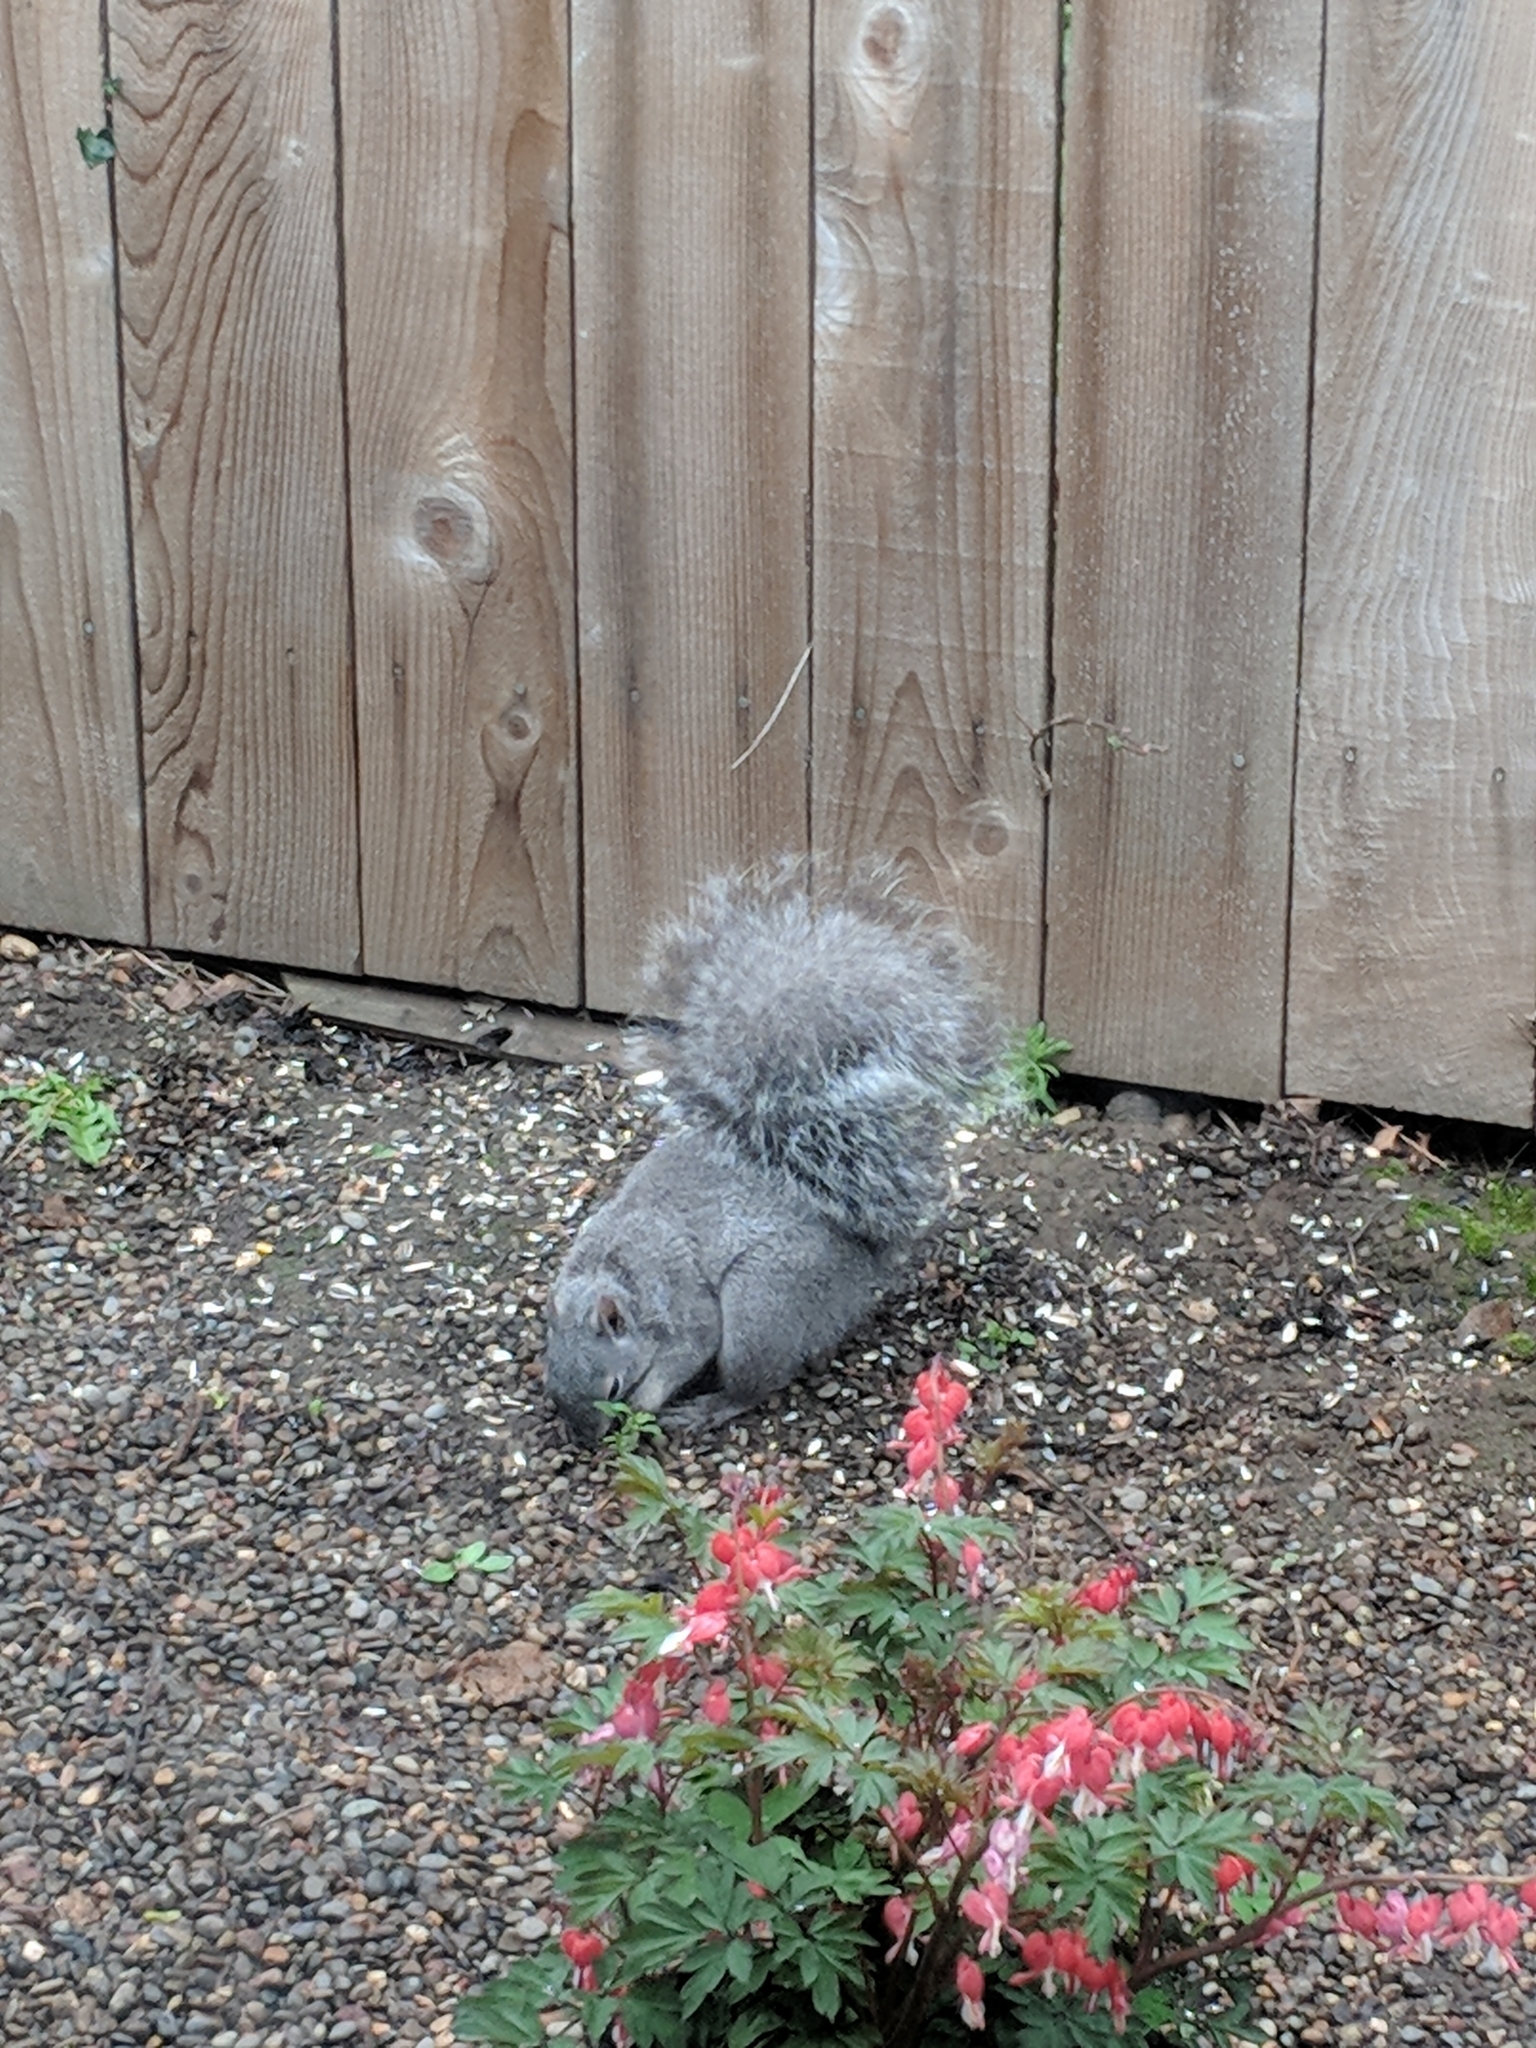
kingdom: Animalia
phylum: Chordata
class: Mammalia
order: Rodentia
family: Sciuridae
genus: Sciurus
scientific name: Sciurus griseus
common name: Western gray squirrel
